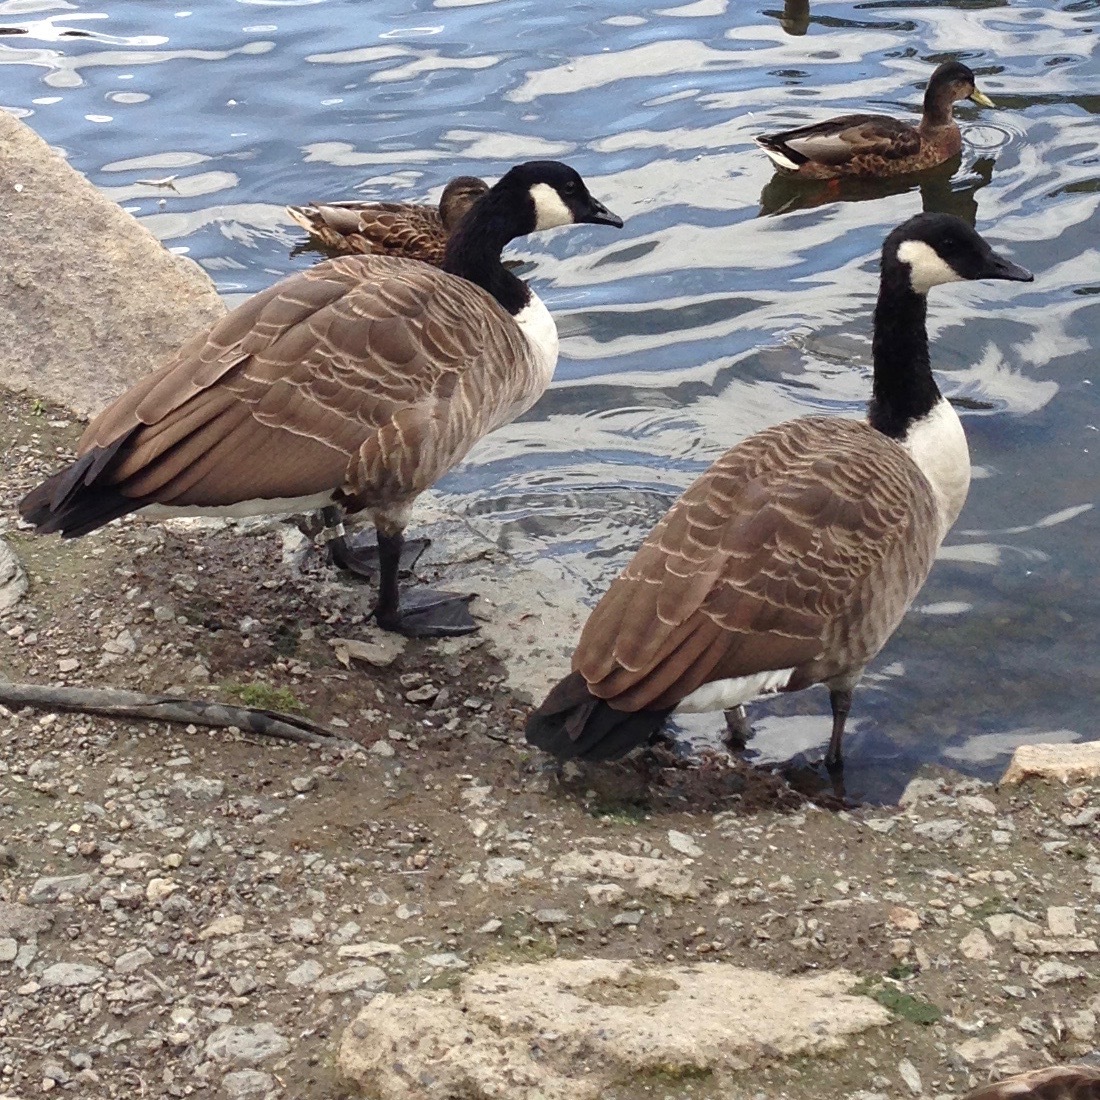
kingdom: Animalia
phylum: Chordata
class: Aves
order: Anseriformes
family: Anatidae
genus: Branta
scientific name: Branta canadensis
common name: Canada goose
